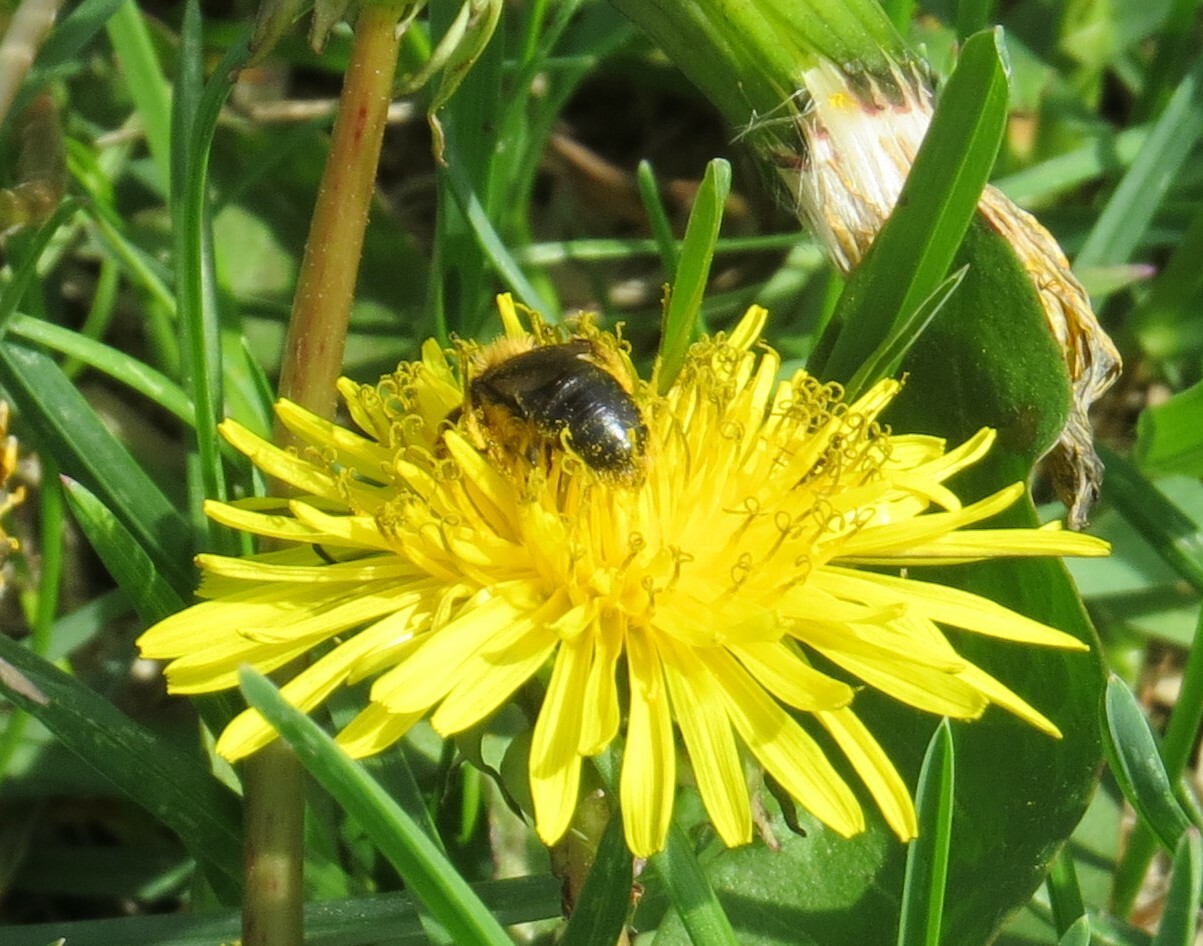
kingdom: Animalia
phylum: Arthropoda
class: Insecta
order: Hymenoptera
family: Andrenidae
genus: Andrena
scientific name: Andrena
